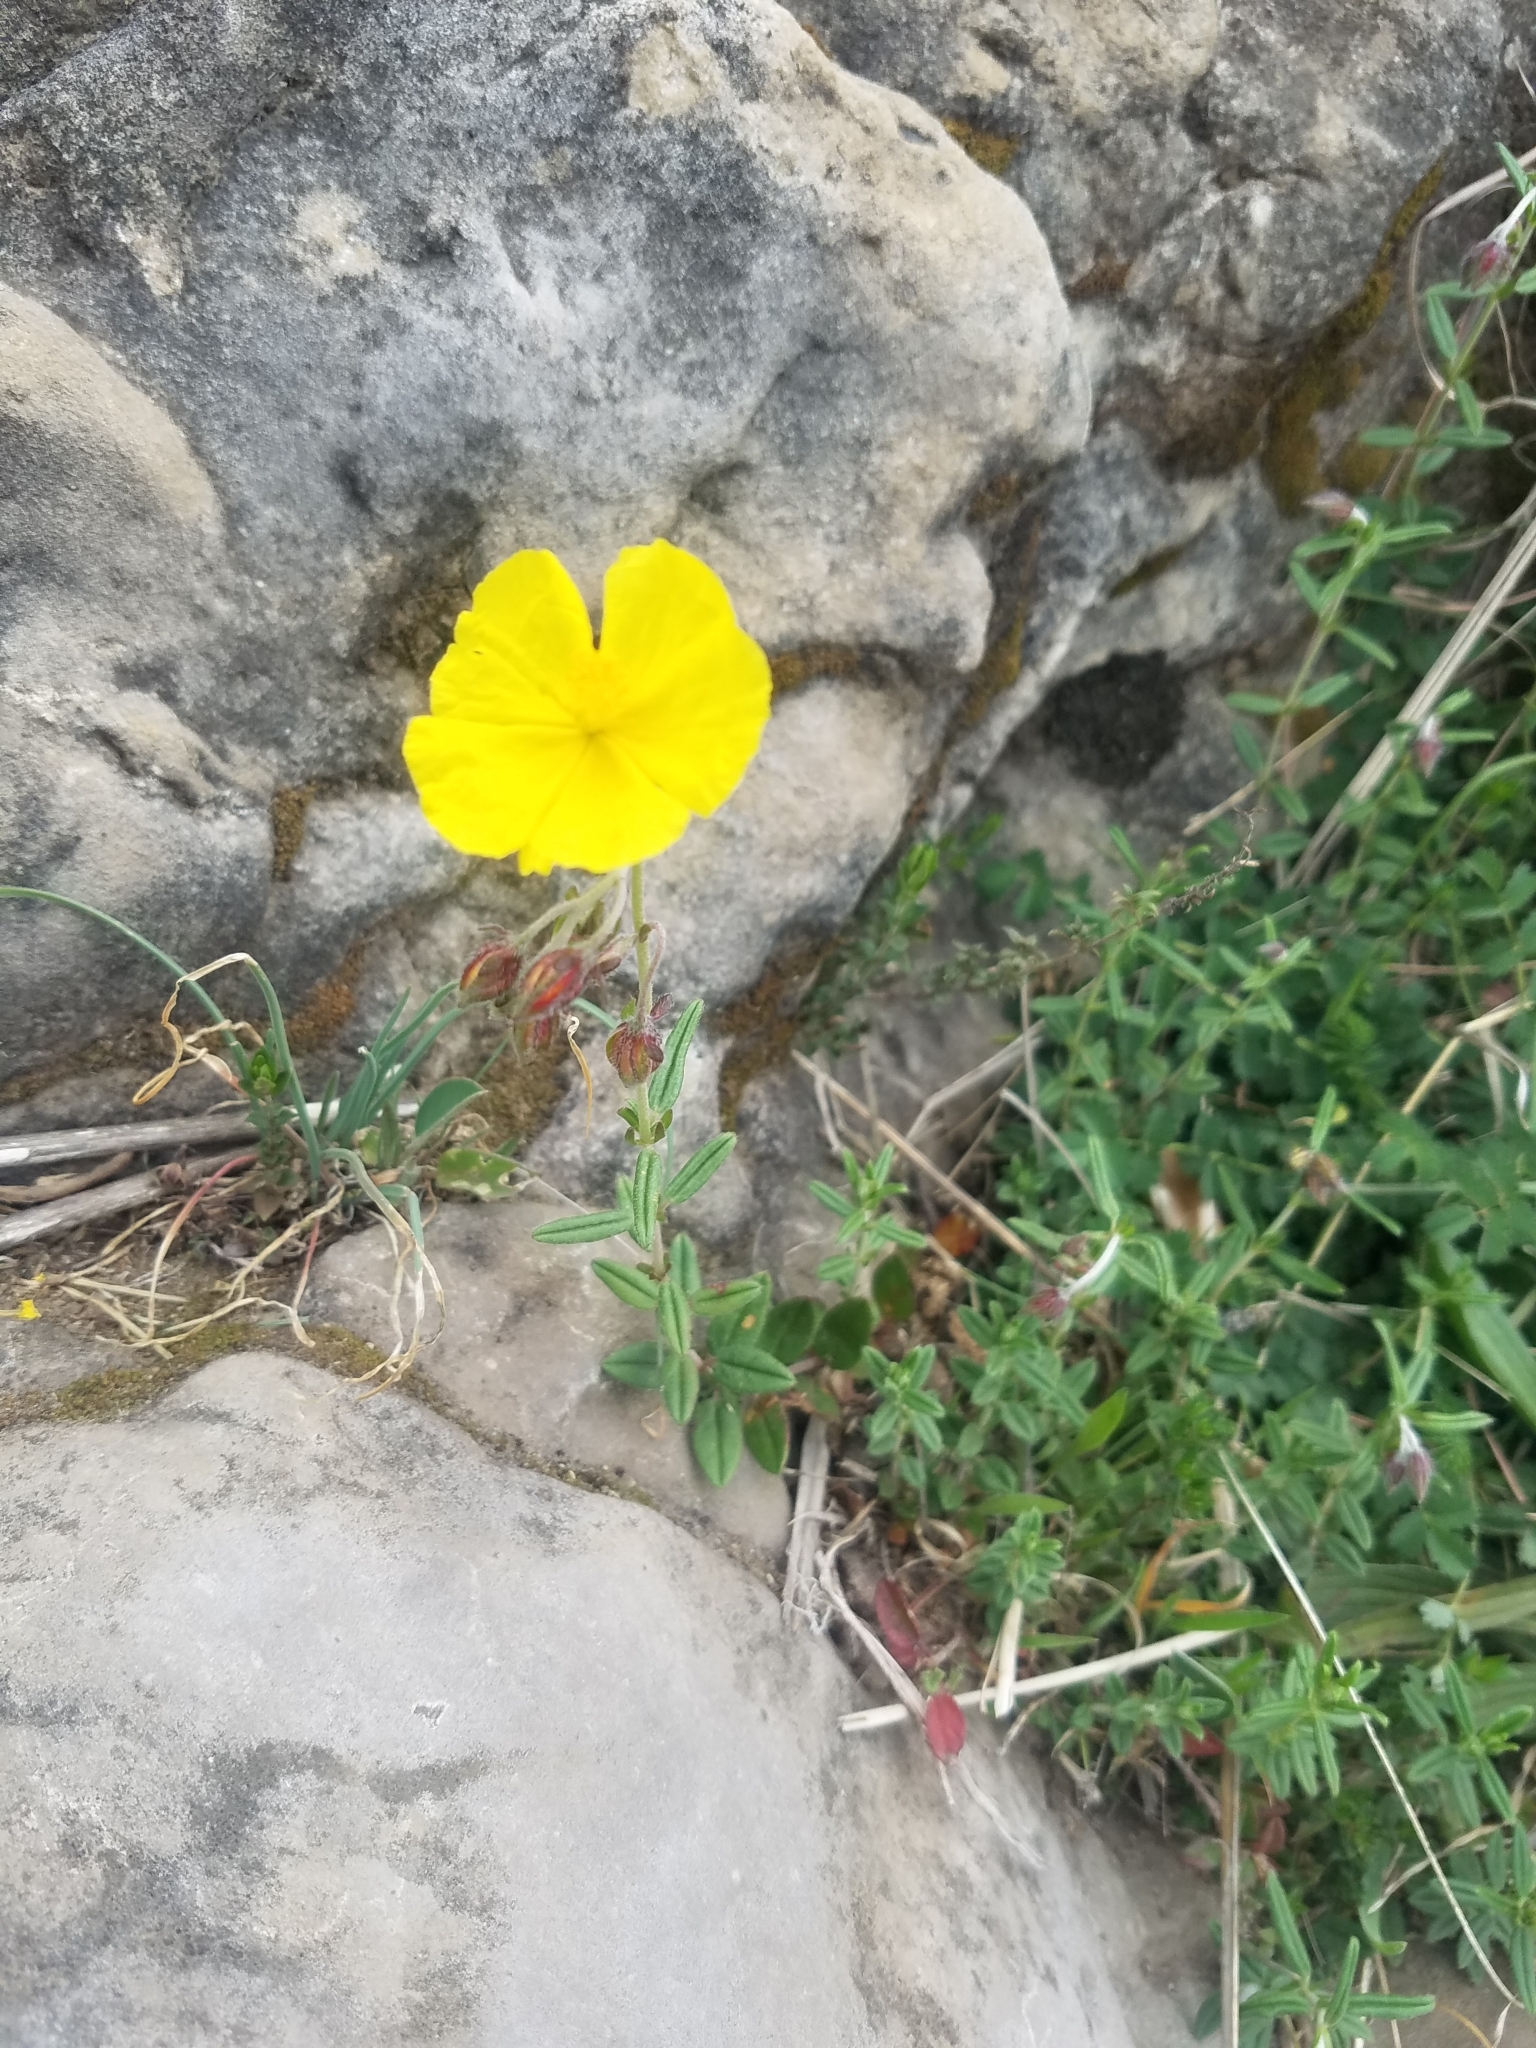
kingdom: Plantae
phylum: Tracheophyta
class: Magnoliopsida
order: Malvales
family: Cistaceae
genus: Helianthemum
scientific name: Helianthemum nummularium
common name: Common rock-rose
